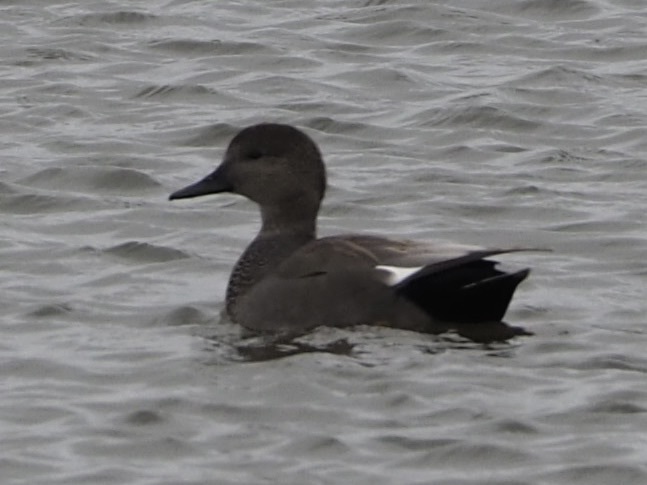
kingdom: Animalia
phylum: Chordata
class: Aves
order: Anseriformes
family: Anatidae
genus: Mareca
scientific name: Mareca strepera
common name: Gadwall
